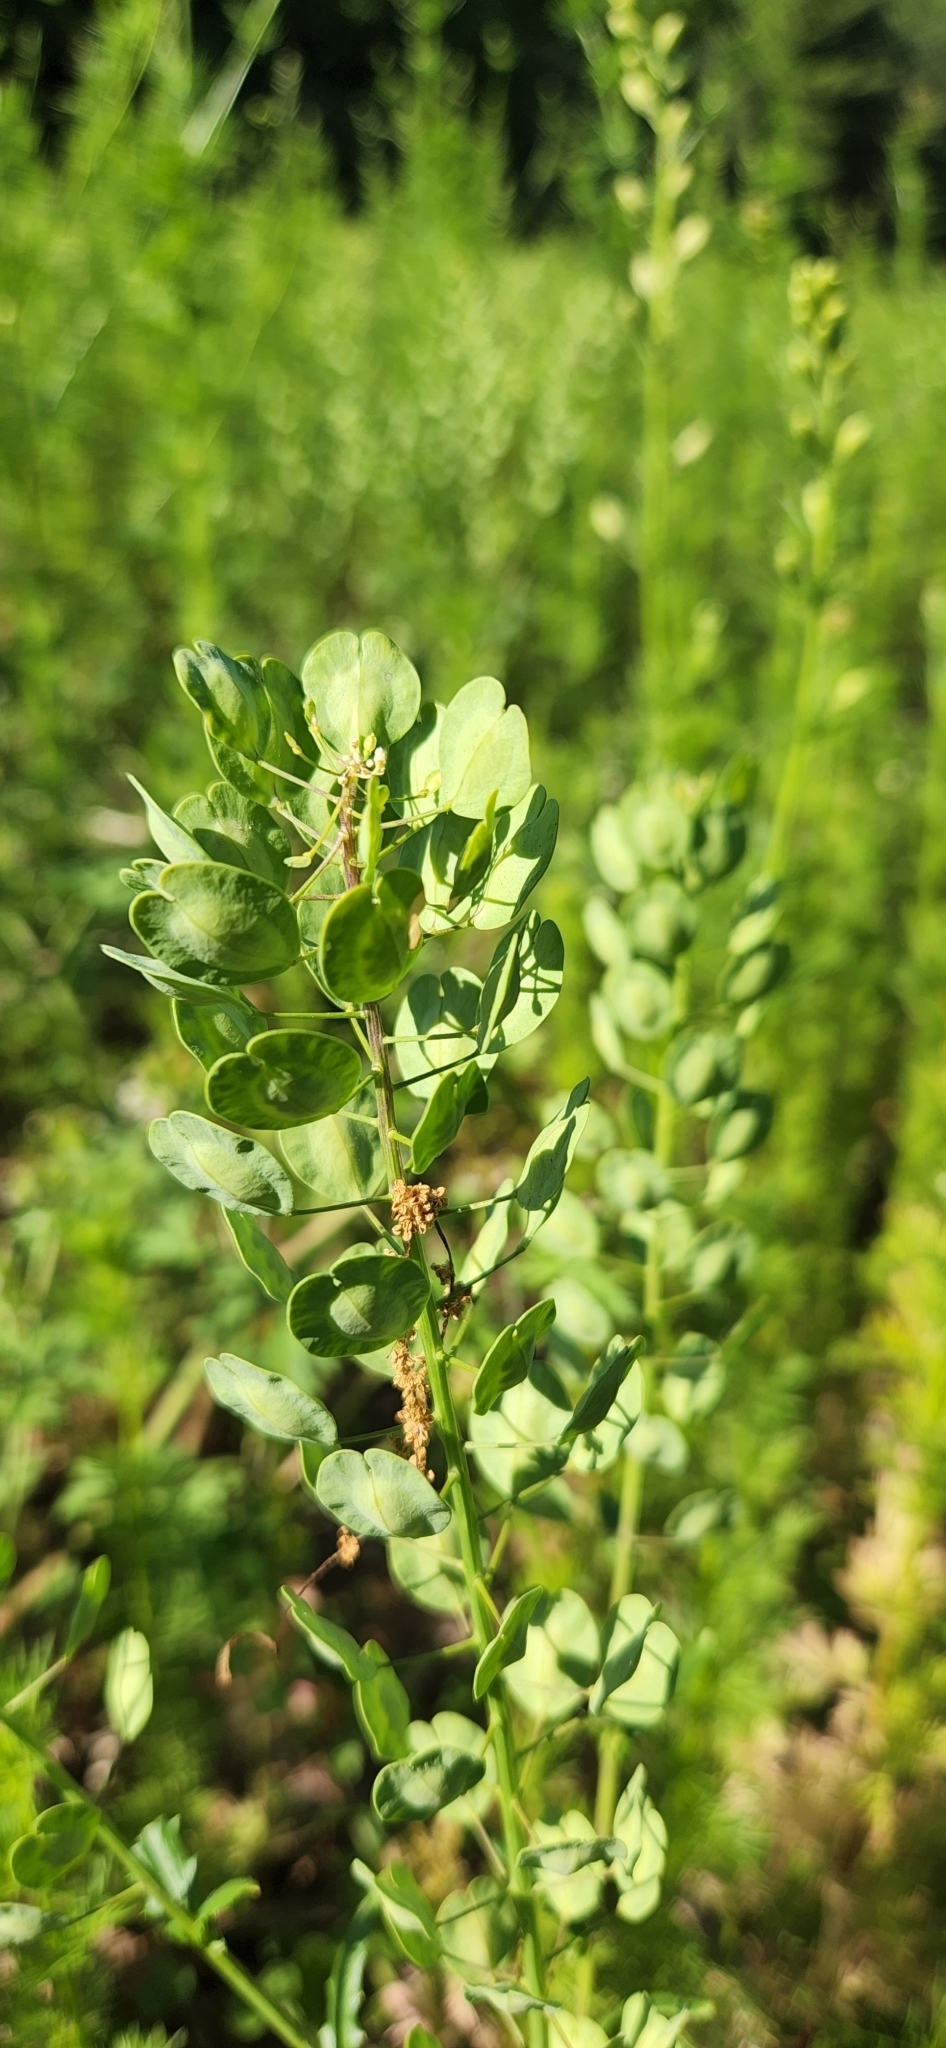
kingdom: Plantae
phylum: Tracheophyta
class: Magnoliopsida
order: Brassicales
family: Brassicaceae
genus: Thlaspi
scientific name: Thlaspi arvense
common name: Field pennycress
